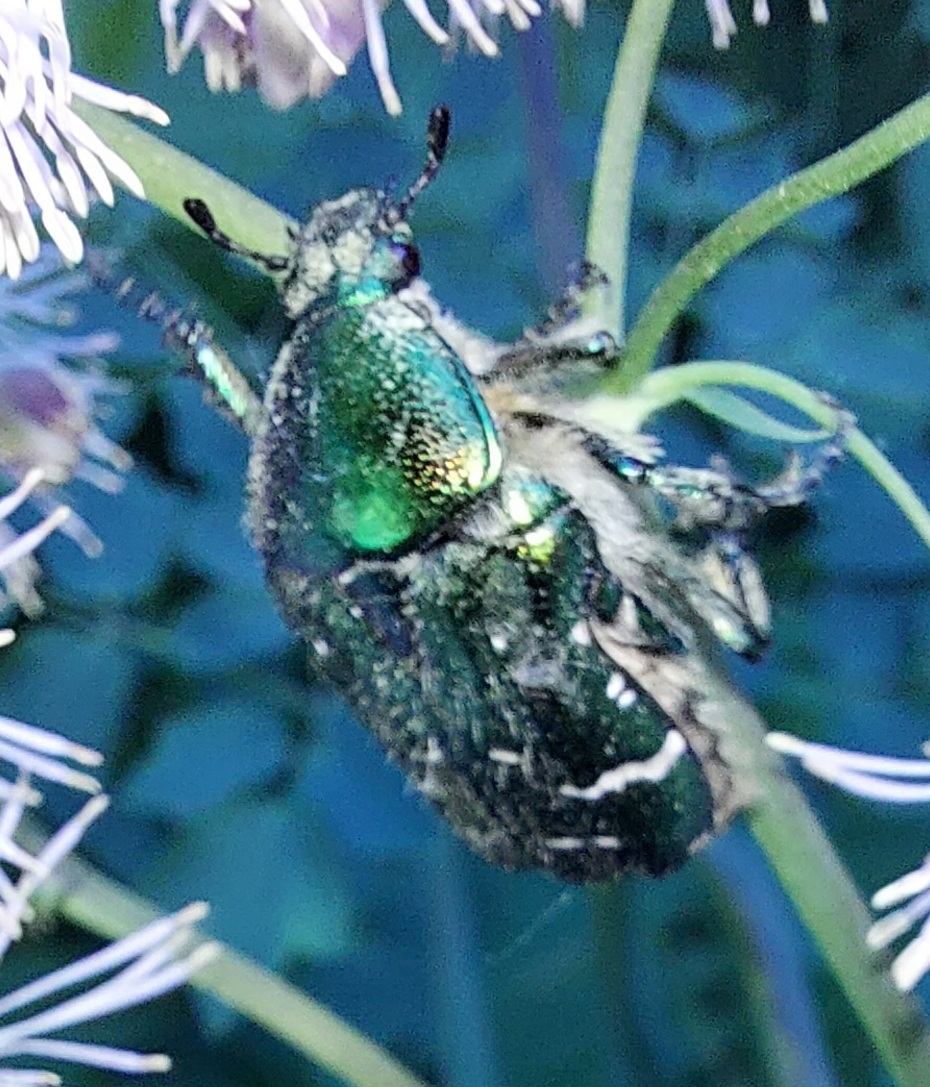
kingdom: Animalia
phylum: Arthropoda
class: Insecta
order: Coleoptera
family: Scarabaeidae
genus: Cetonia
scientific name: Cetonia aurata
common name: Rose chafer
